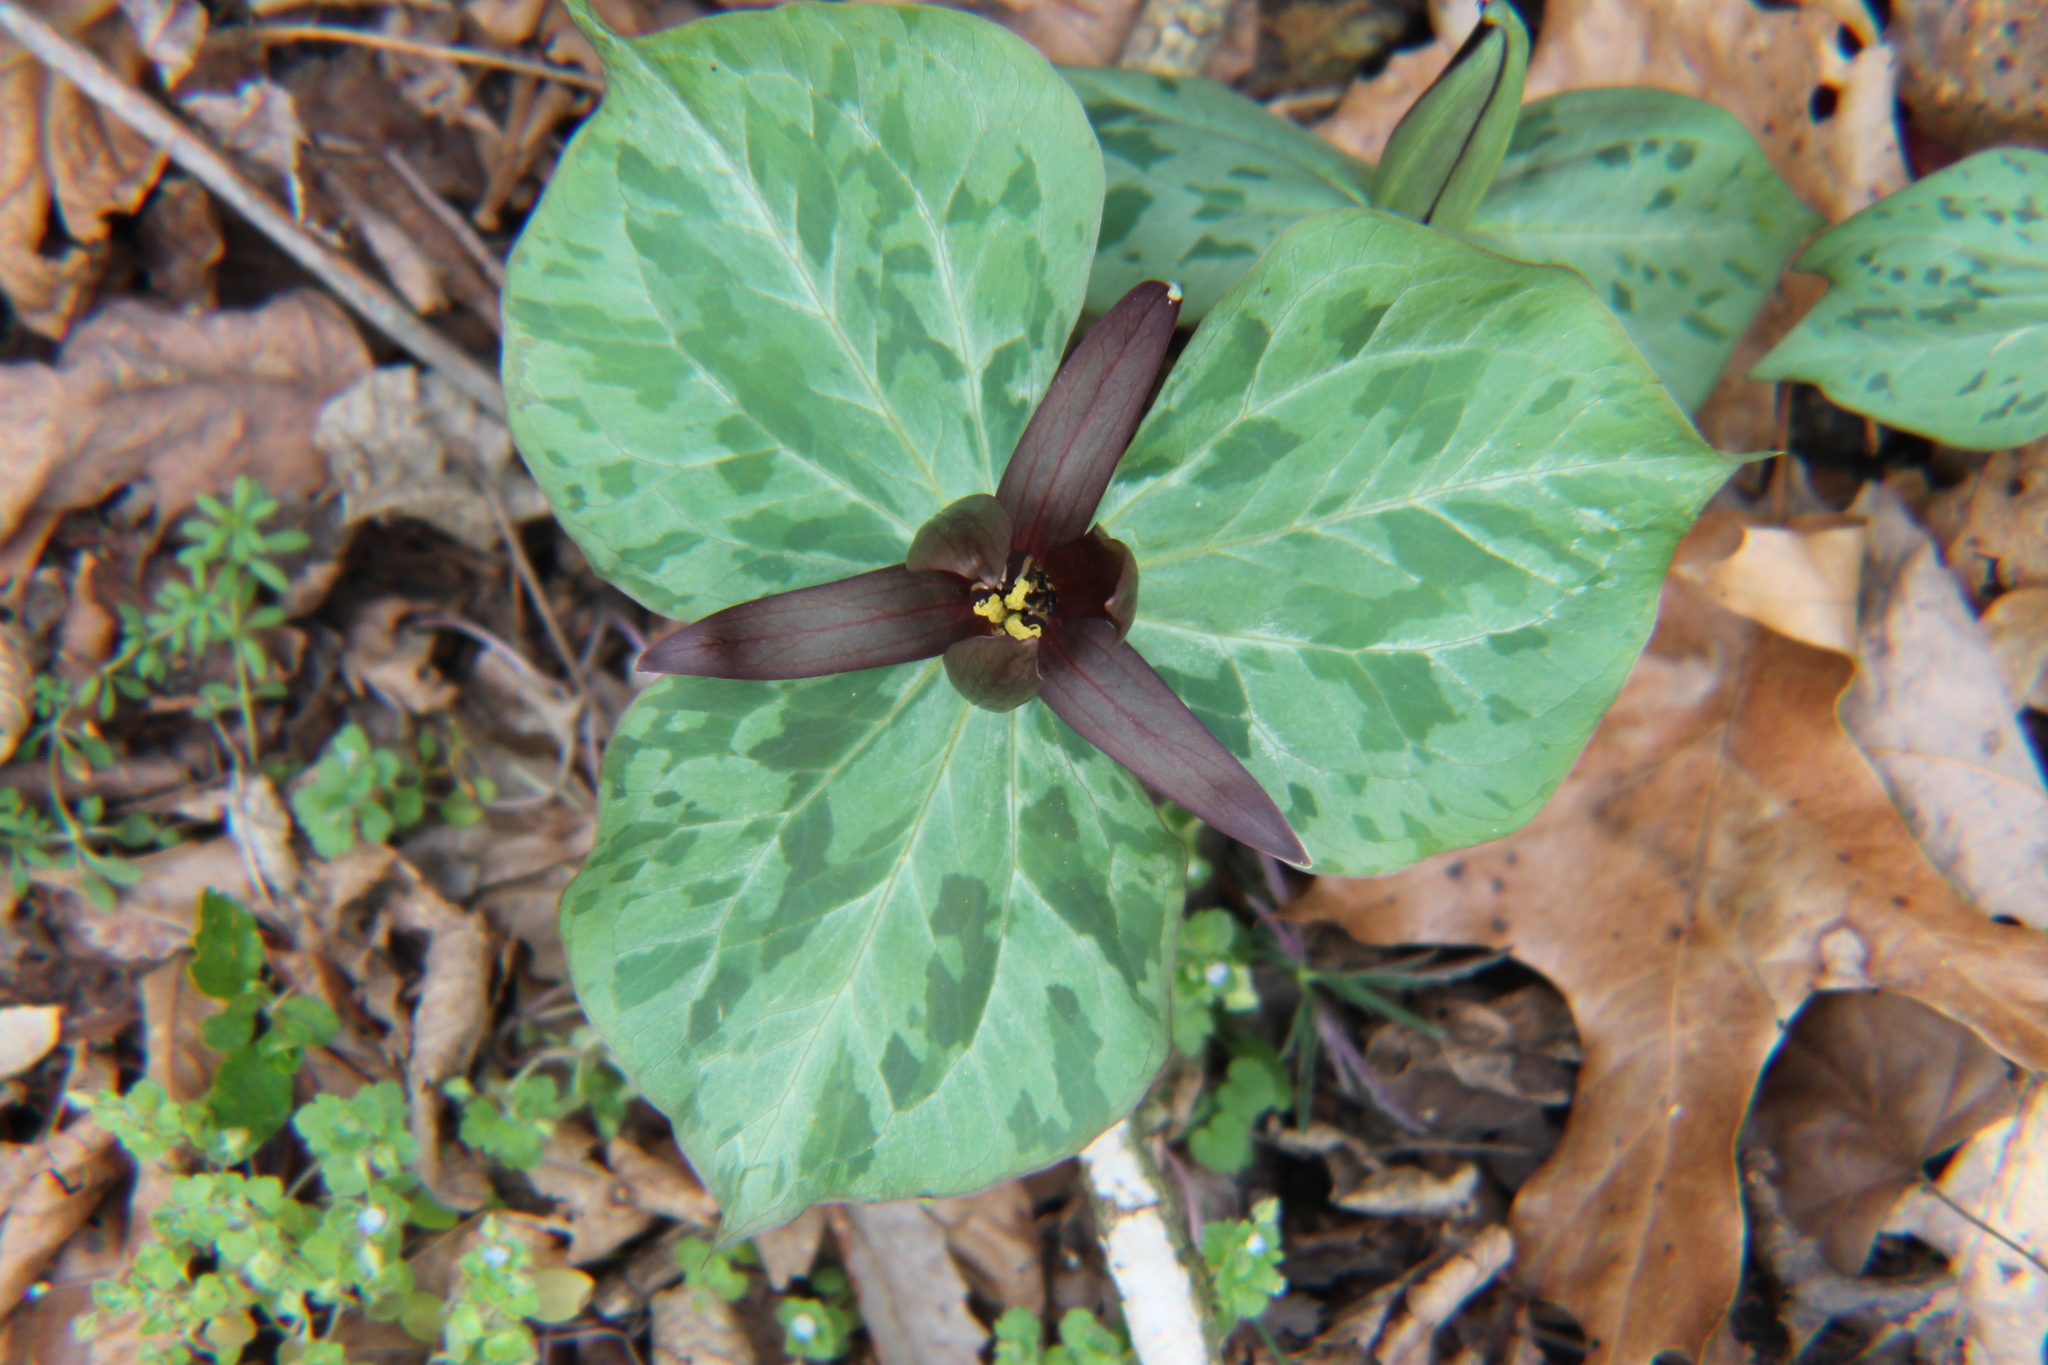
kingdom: Plantae
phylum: Tracheophyta
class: Liliopsida
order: Liliales
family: Melanthiaceae
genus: Trillium
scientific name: Trillium cuneatum
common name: Cuneate trillium
